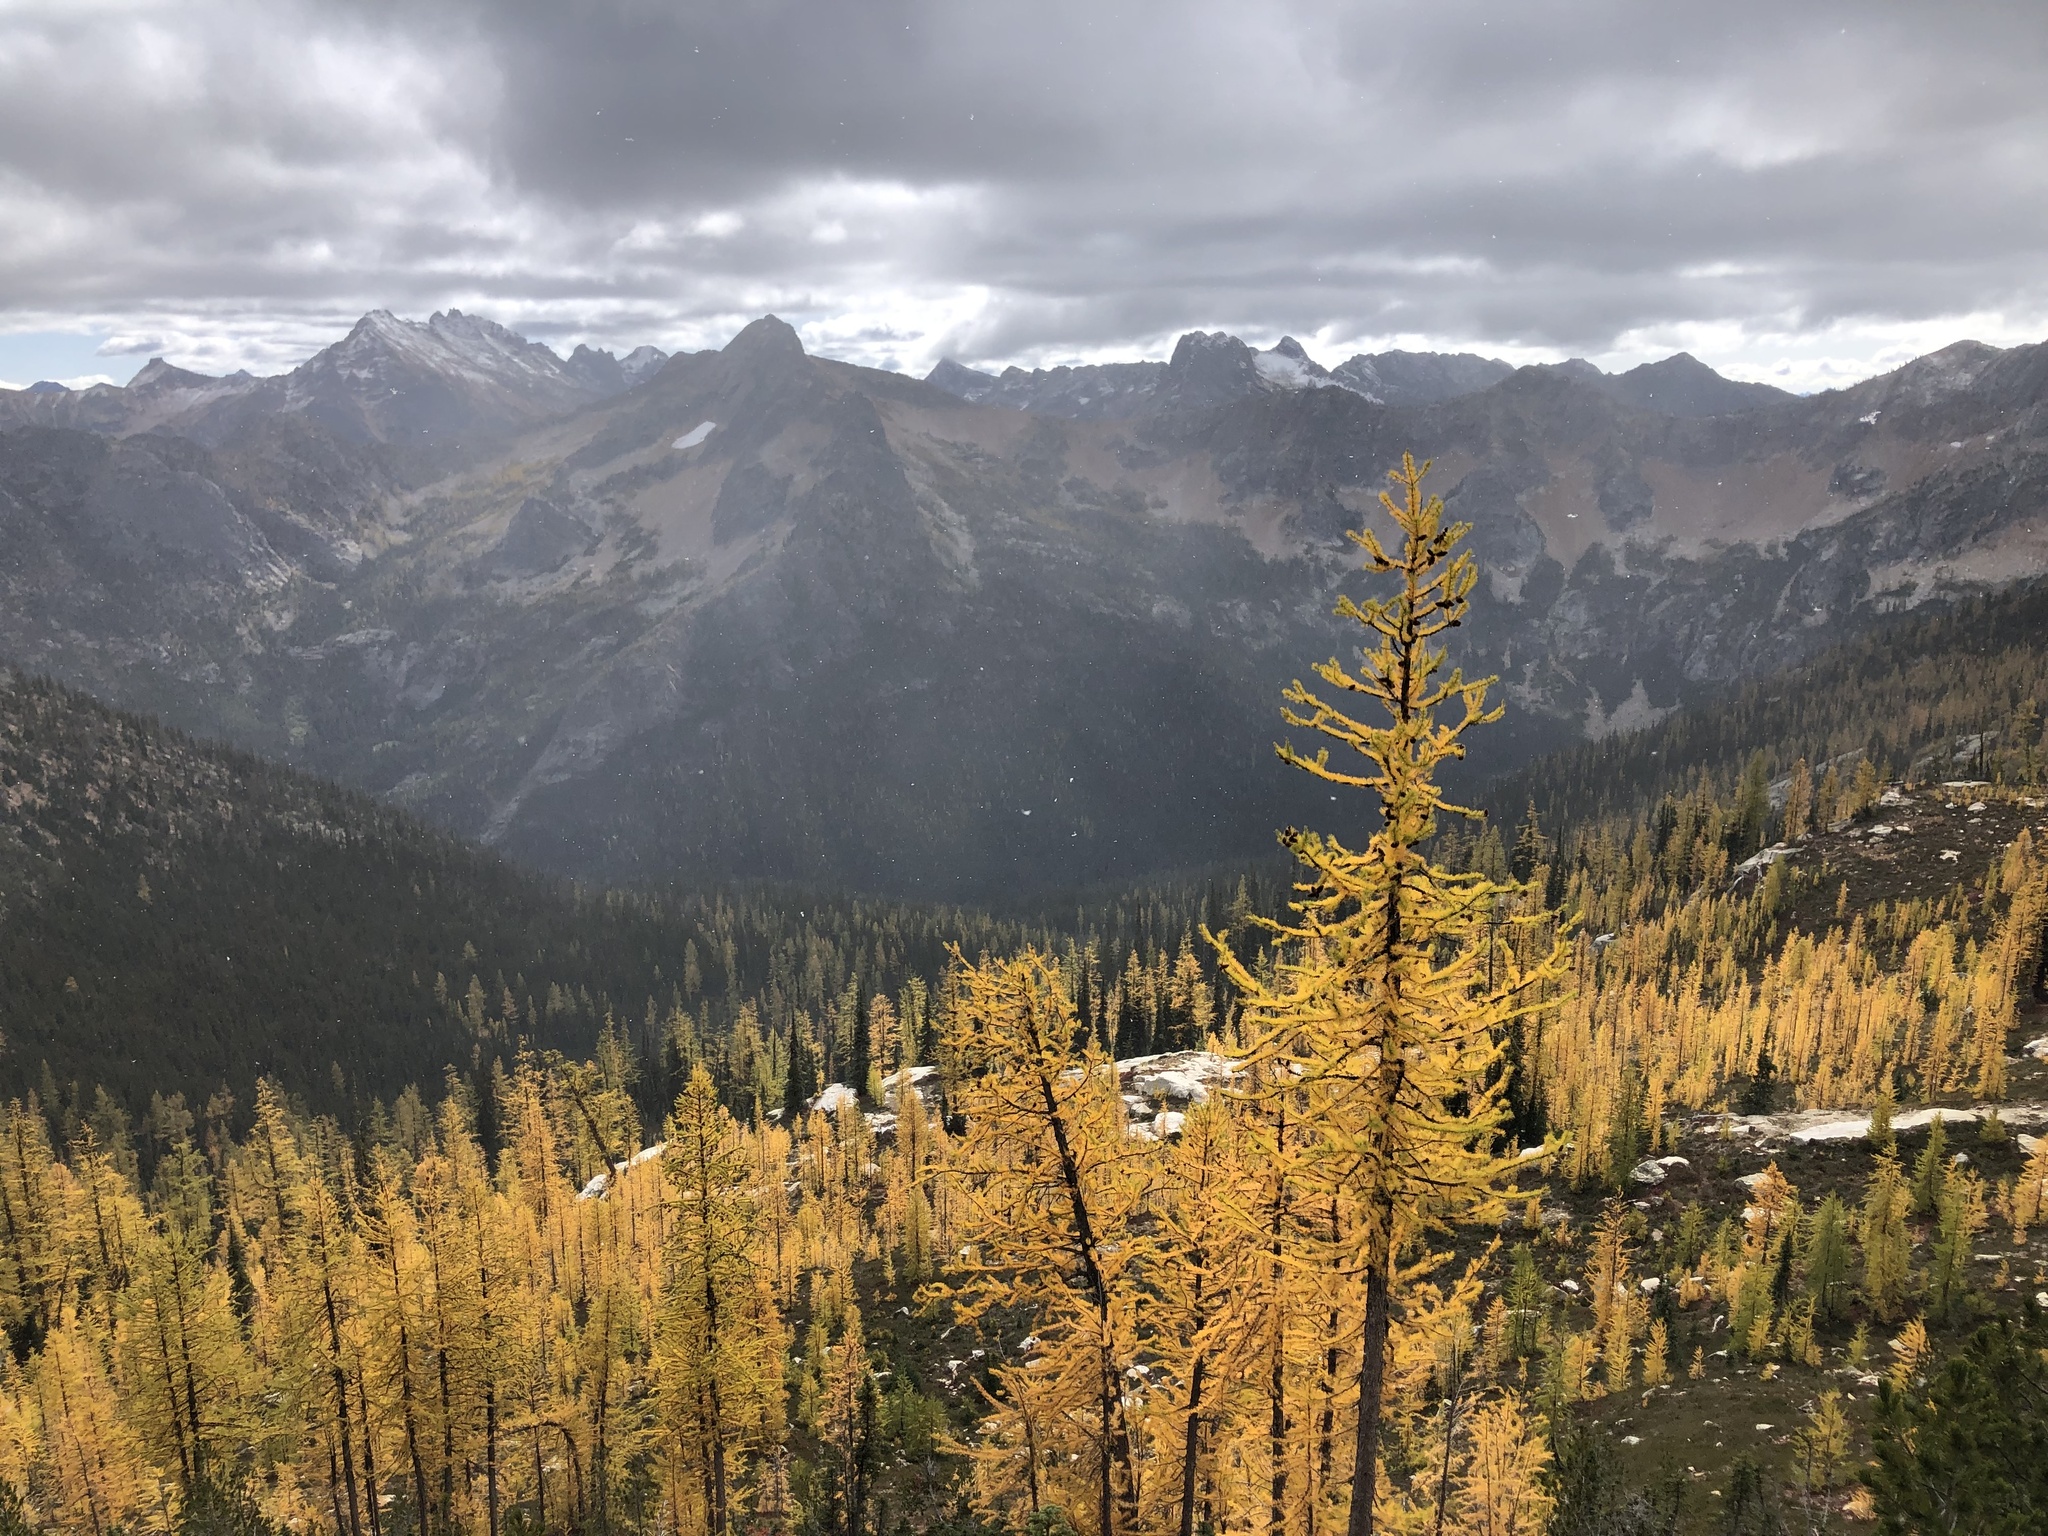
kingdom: Plantae
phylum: Tracheophyta
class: Pinopsida
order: Pinales
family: Pinaceae
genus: Larix
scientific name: Larix lyallii
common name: Alpine larch
